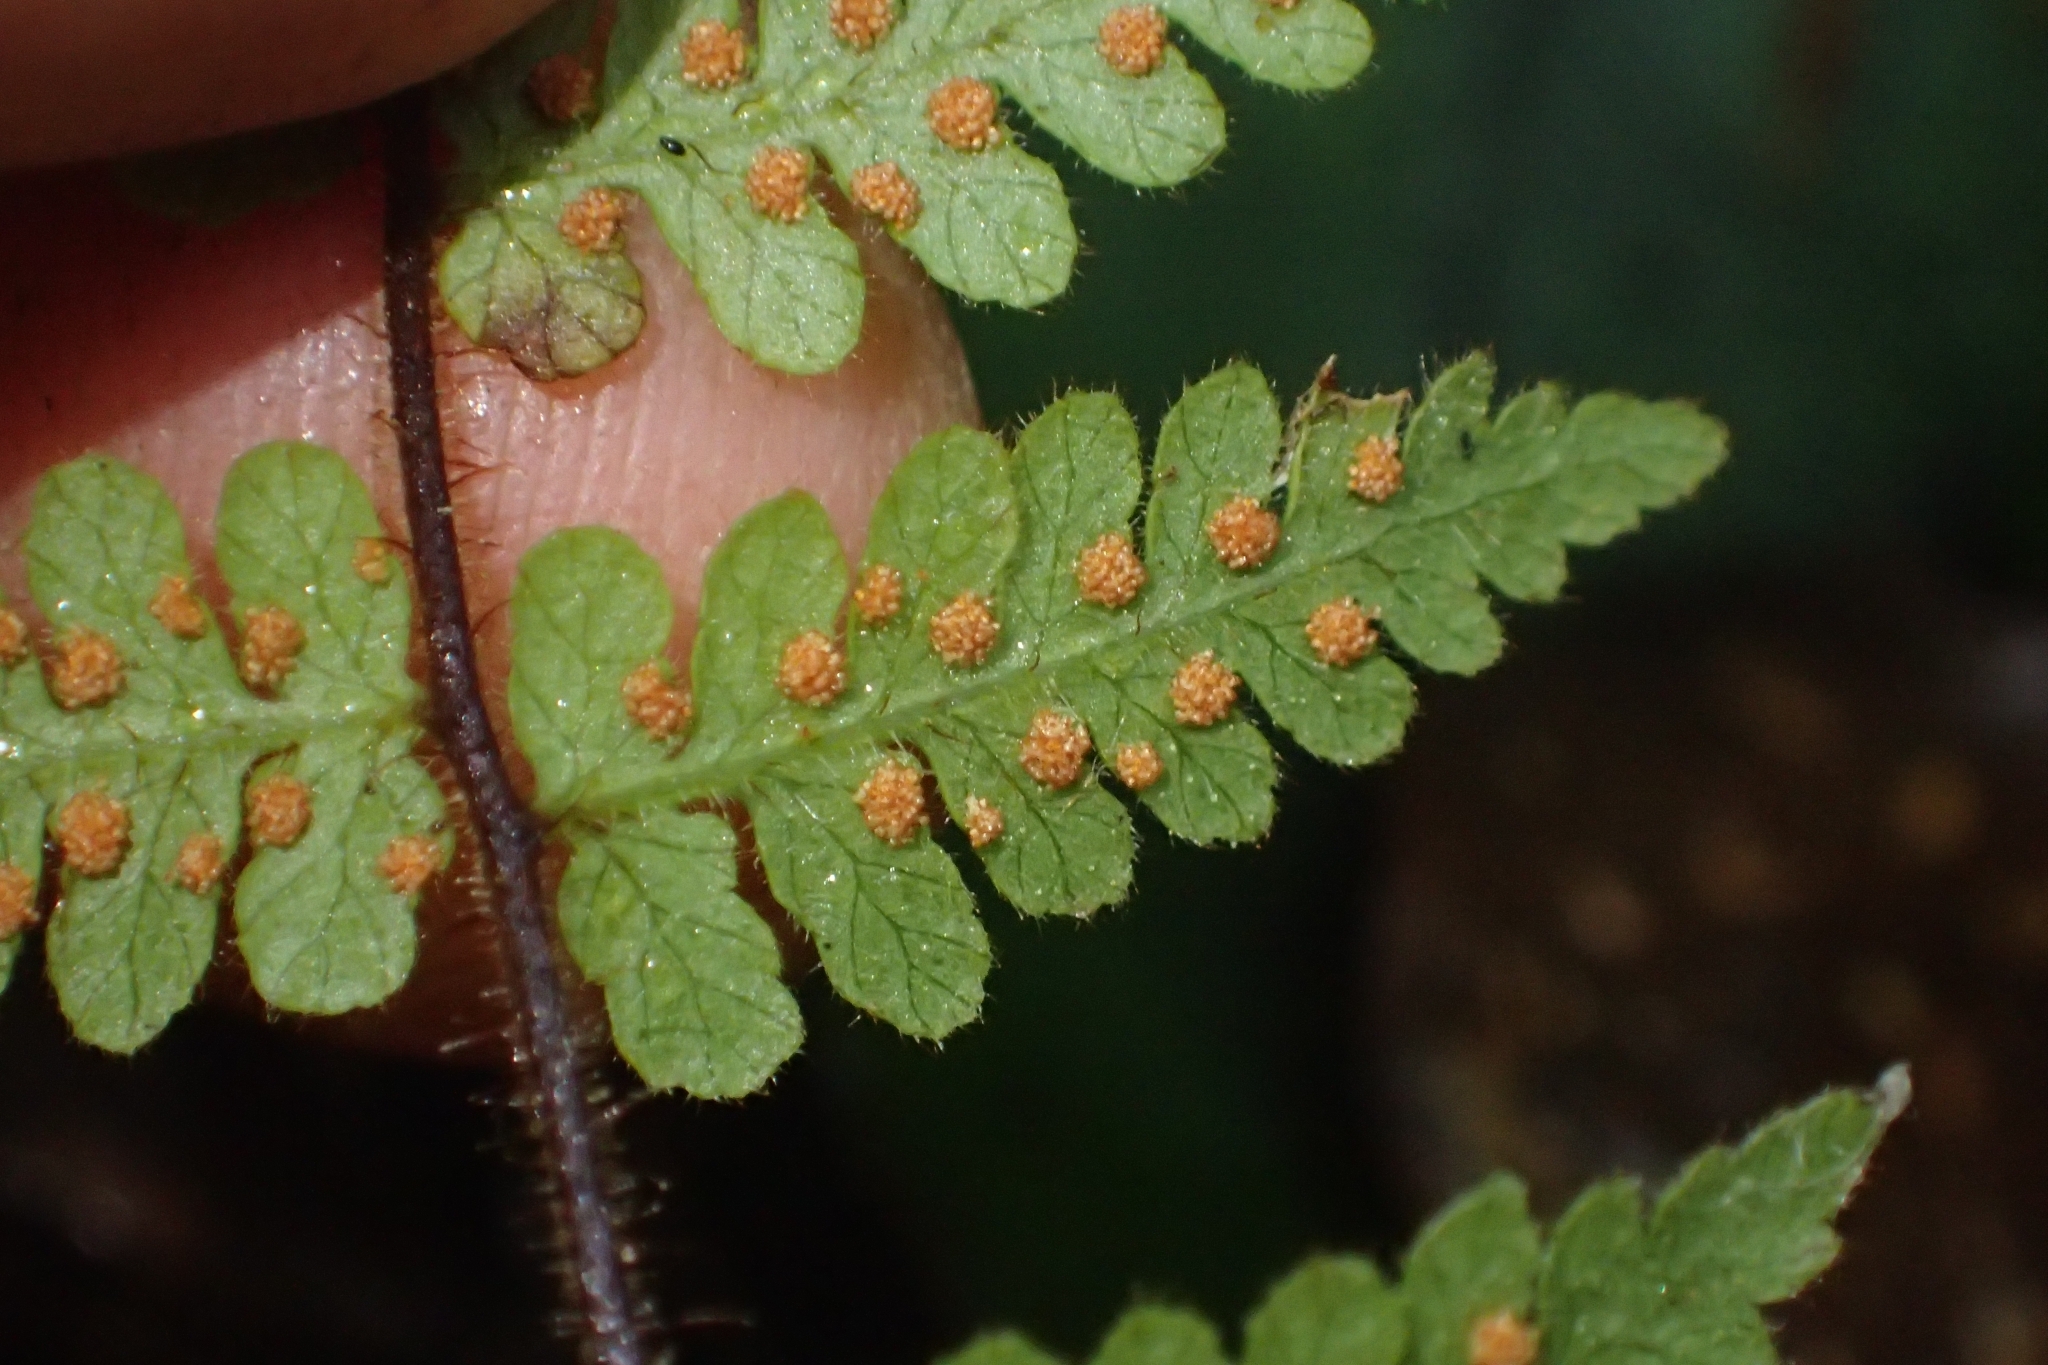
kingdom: Plantae
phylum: Tracheophyta
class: Polypodiopsida
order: Polypodiales
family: Dennstaedtiaceae
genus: Hypolepis
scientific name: Hypolepis rugosula
